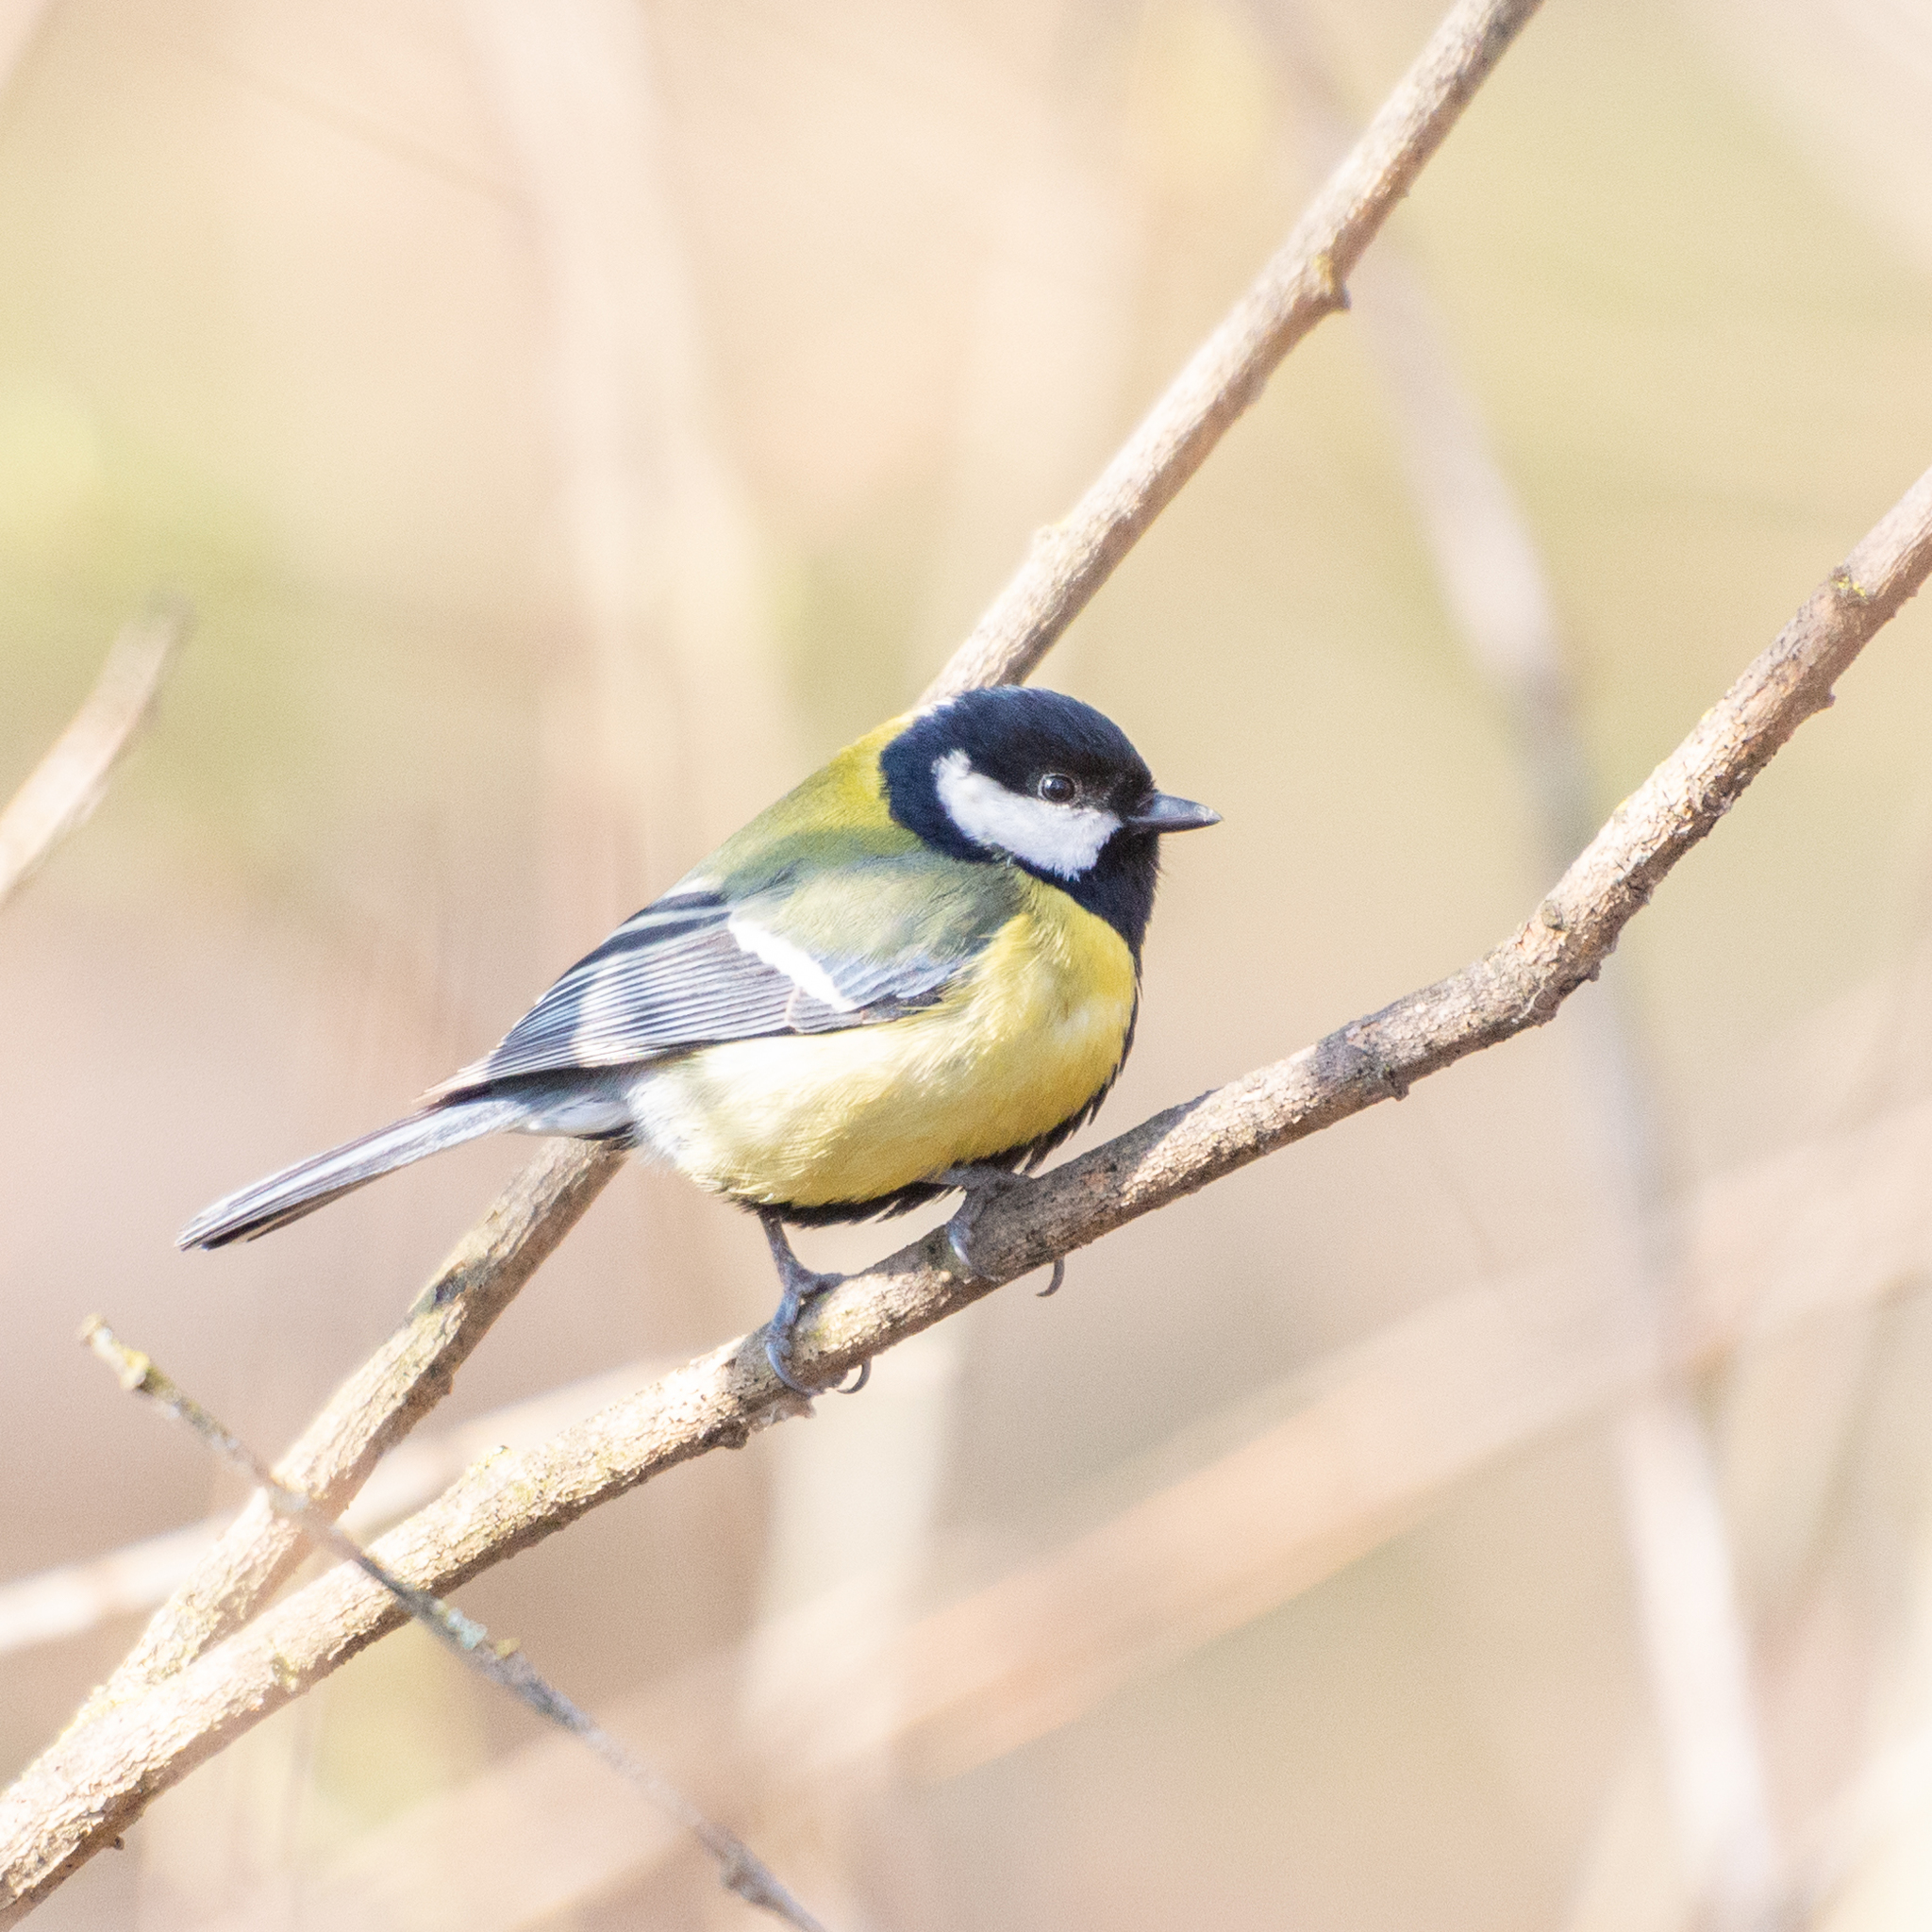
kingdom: Animalia
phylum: Chordata
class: Aves
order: Passeriformes
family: Paridae
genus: Parus
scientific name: Parus major
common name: Great tit
